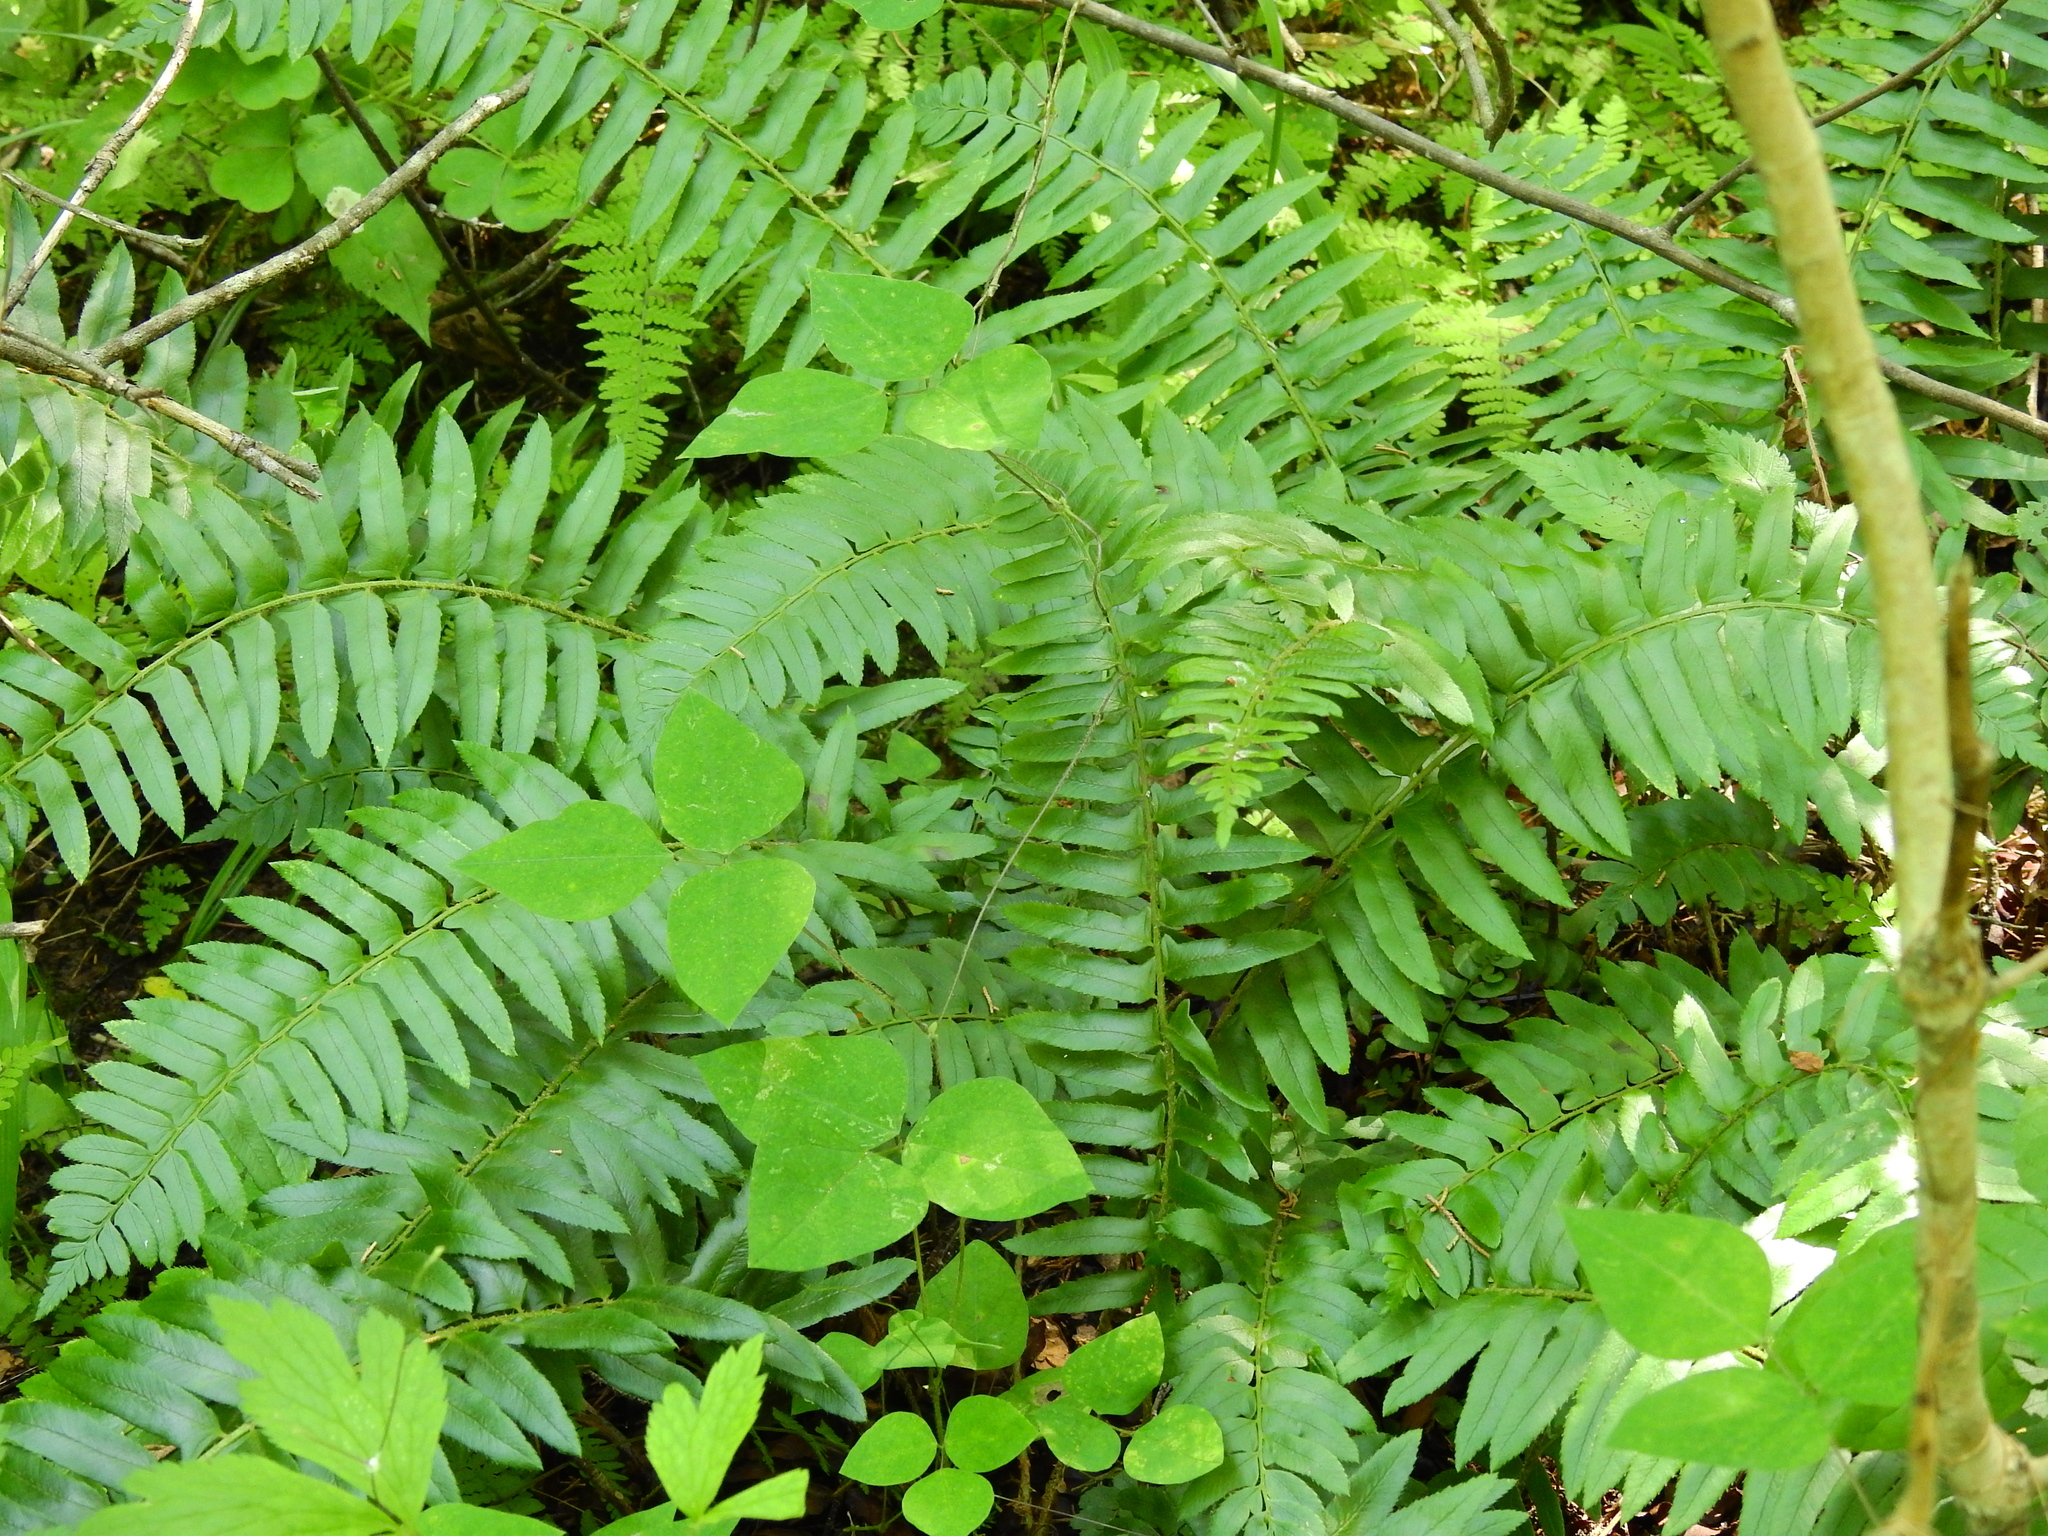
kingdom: Plantae
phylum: Tracheophyta
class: Polypodiopsida
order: Polypodiales
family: Dryopteridaceae
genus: Polystichum
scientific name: Polystichum acrostichoides
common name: Christmas fern
